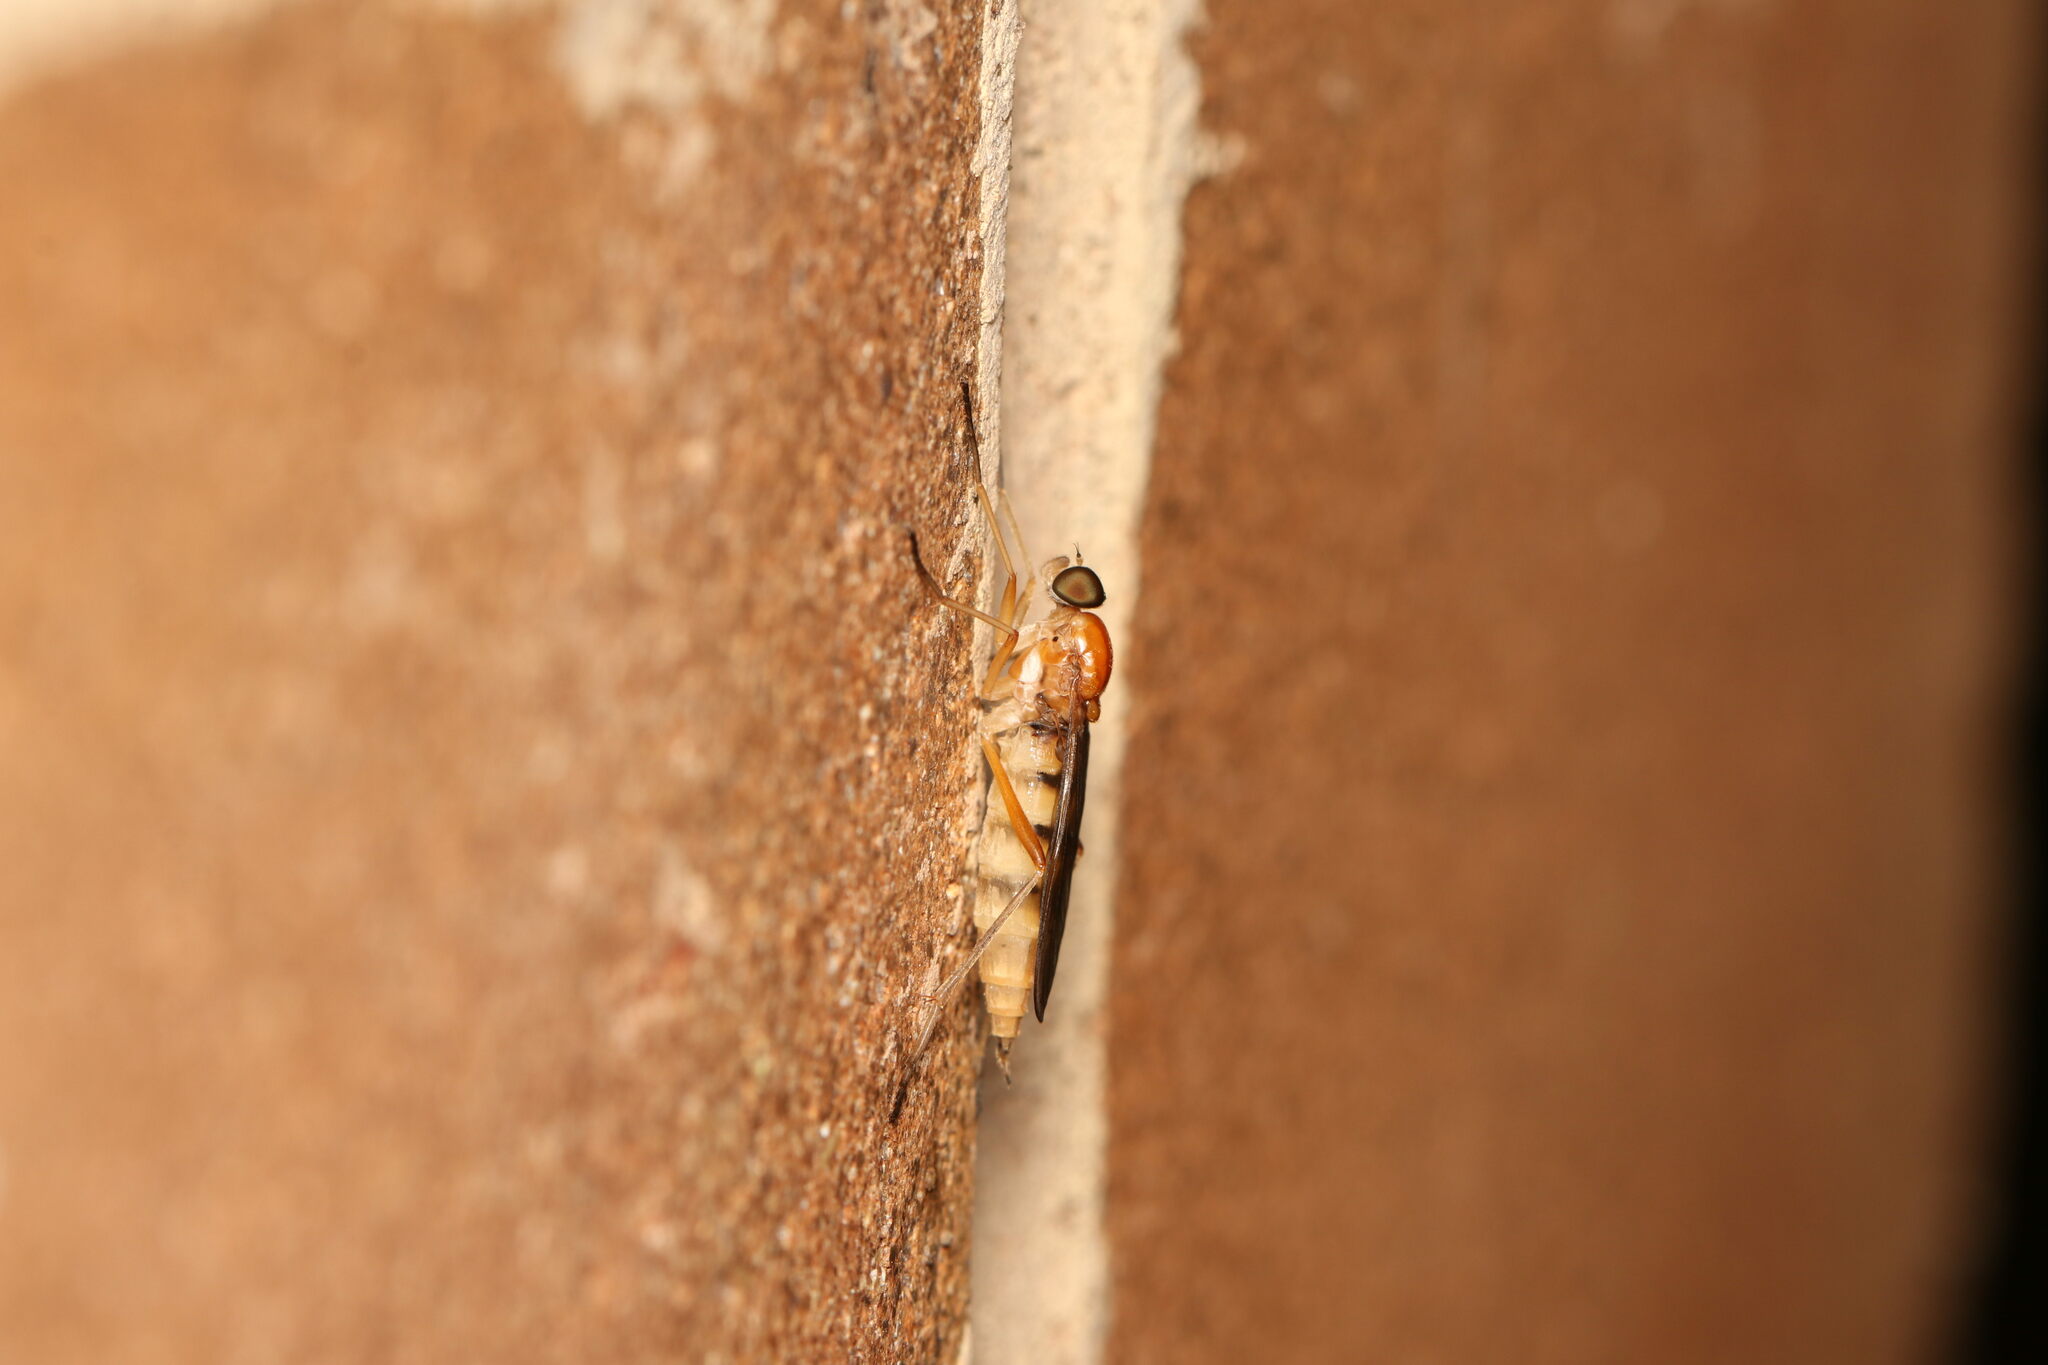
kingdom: Animalia
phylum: Arthropoda
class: Insecta
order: Diptera
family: Xylophagidae
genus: Dialysis
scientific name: Dialysis elongata
